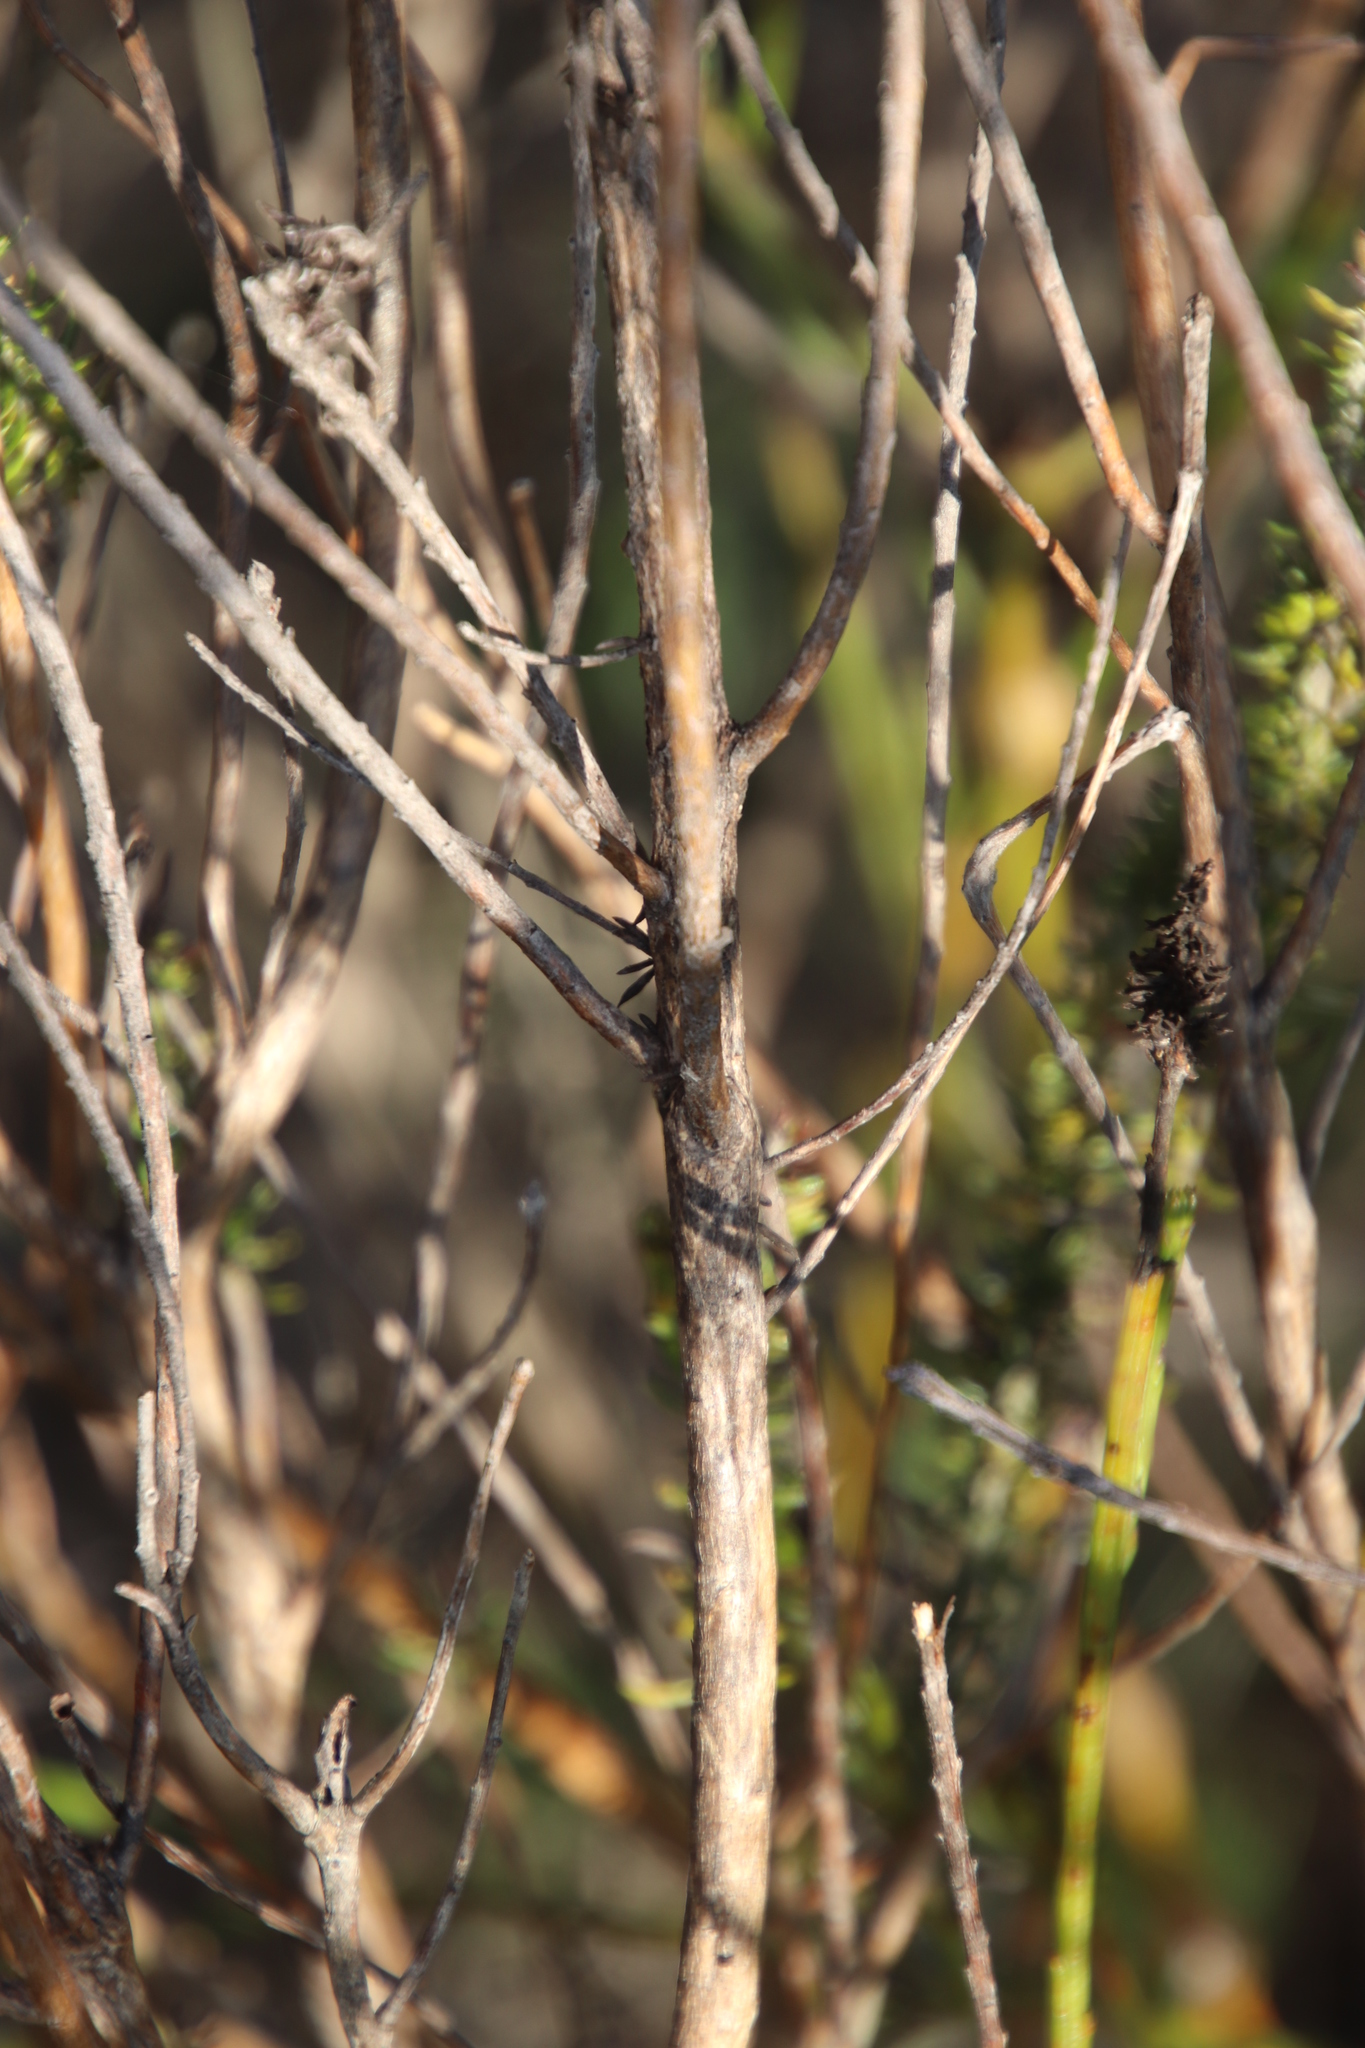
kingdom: Plantae
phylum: Tracheophyta
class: Magnoliopsida
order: Asterales
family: Asteraceae
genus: Metalasia
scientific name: Metalasia densa
